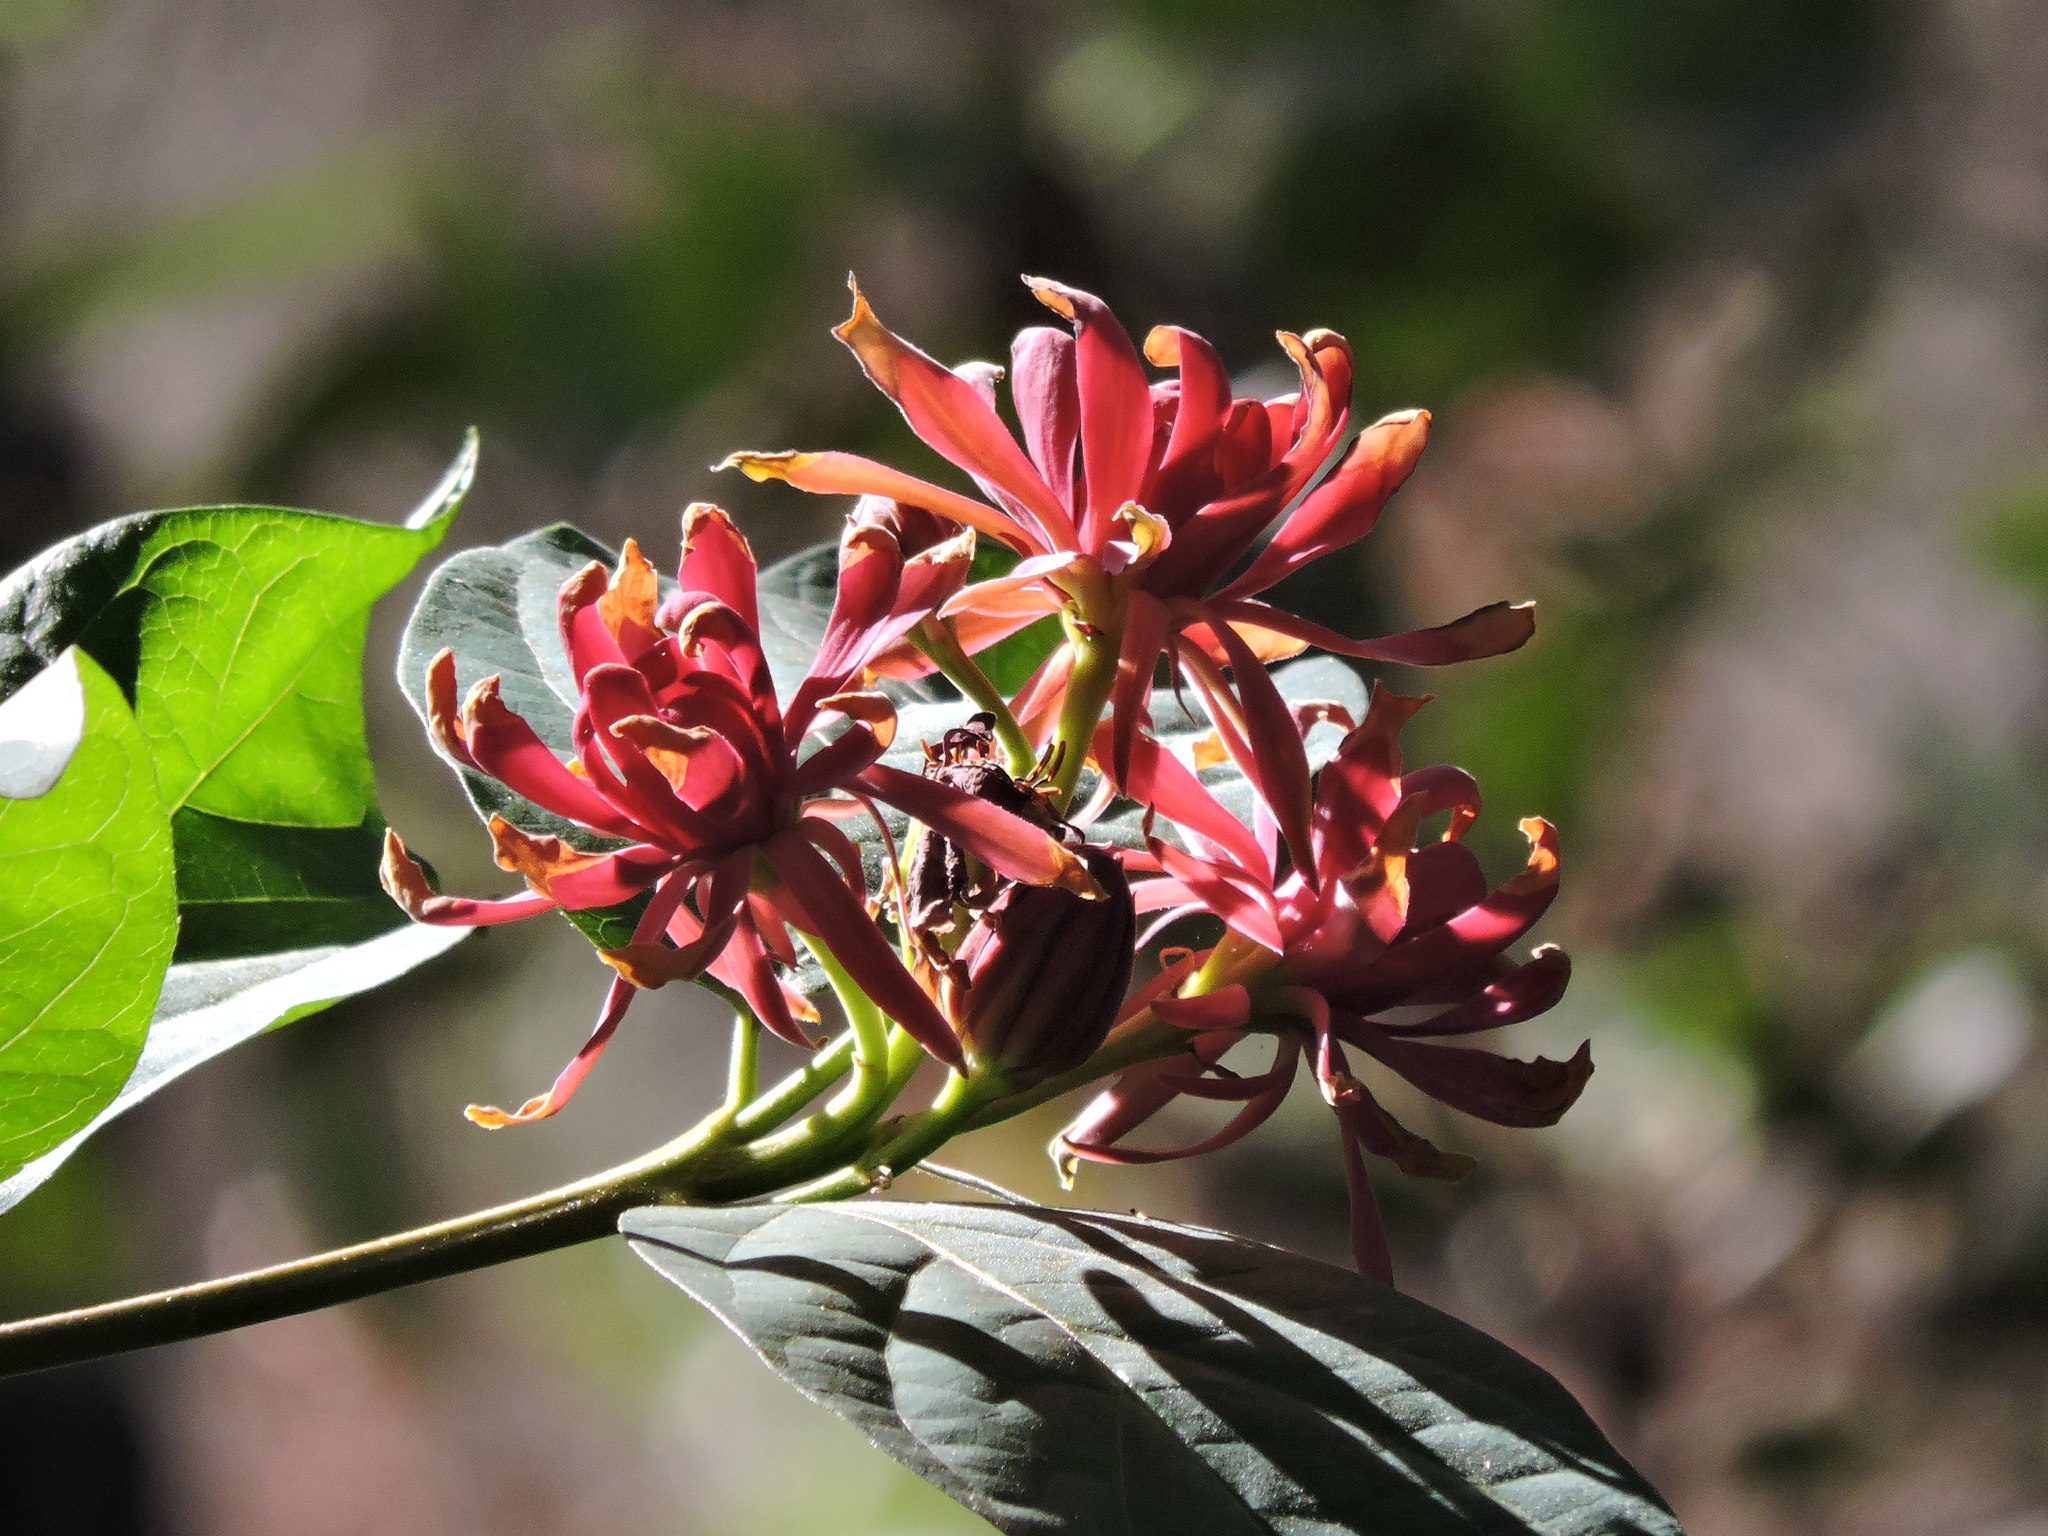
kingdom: Plantae
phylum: Tracheophyta
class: Magnoliopsida
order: Laurales
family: Calycanthaceae
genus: Calycanthus
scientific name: Calycanthus occidentalis
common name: California spicebush
